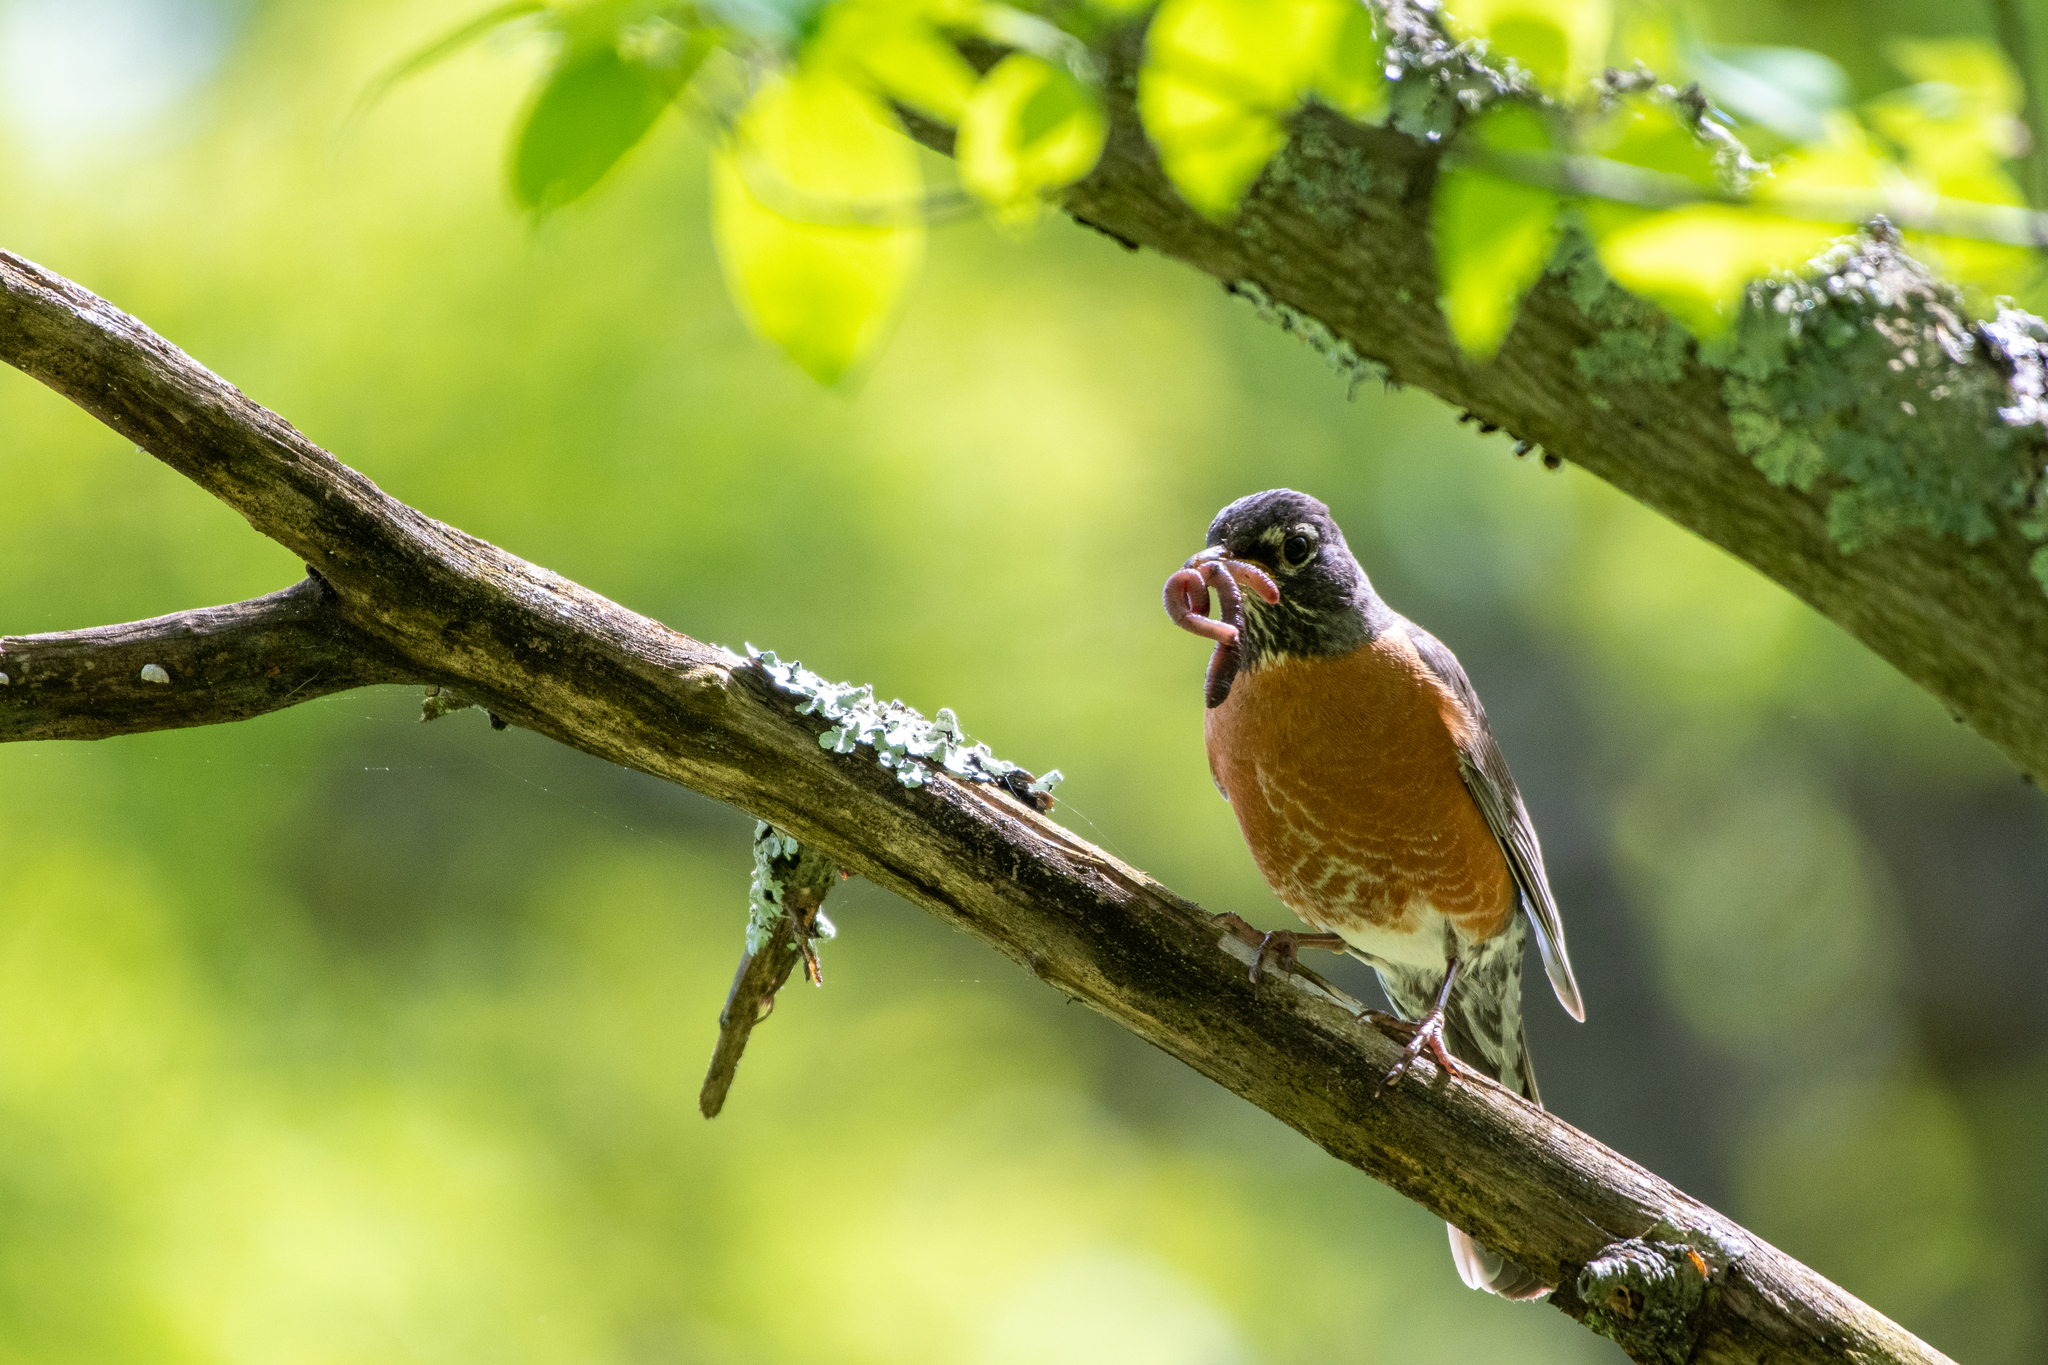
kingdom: Animalia
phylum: Chordata
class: Aves
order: Passeriformes
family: Turdidae
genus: Turdus
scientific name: Turdus migratorius
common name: American robin
